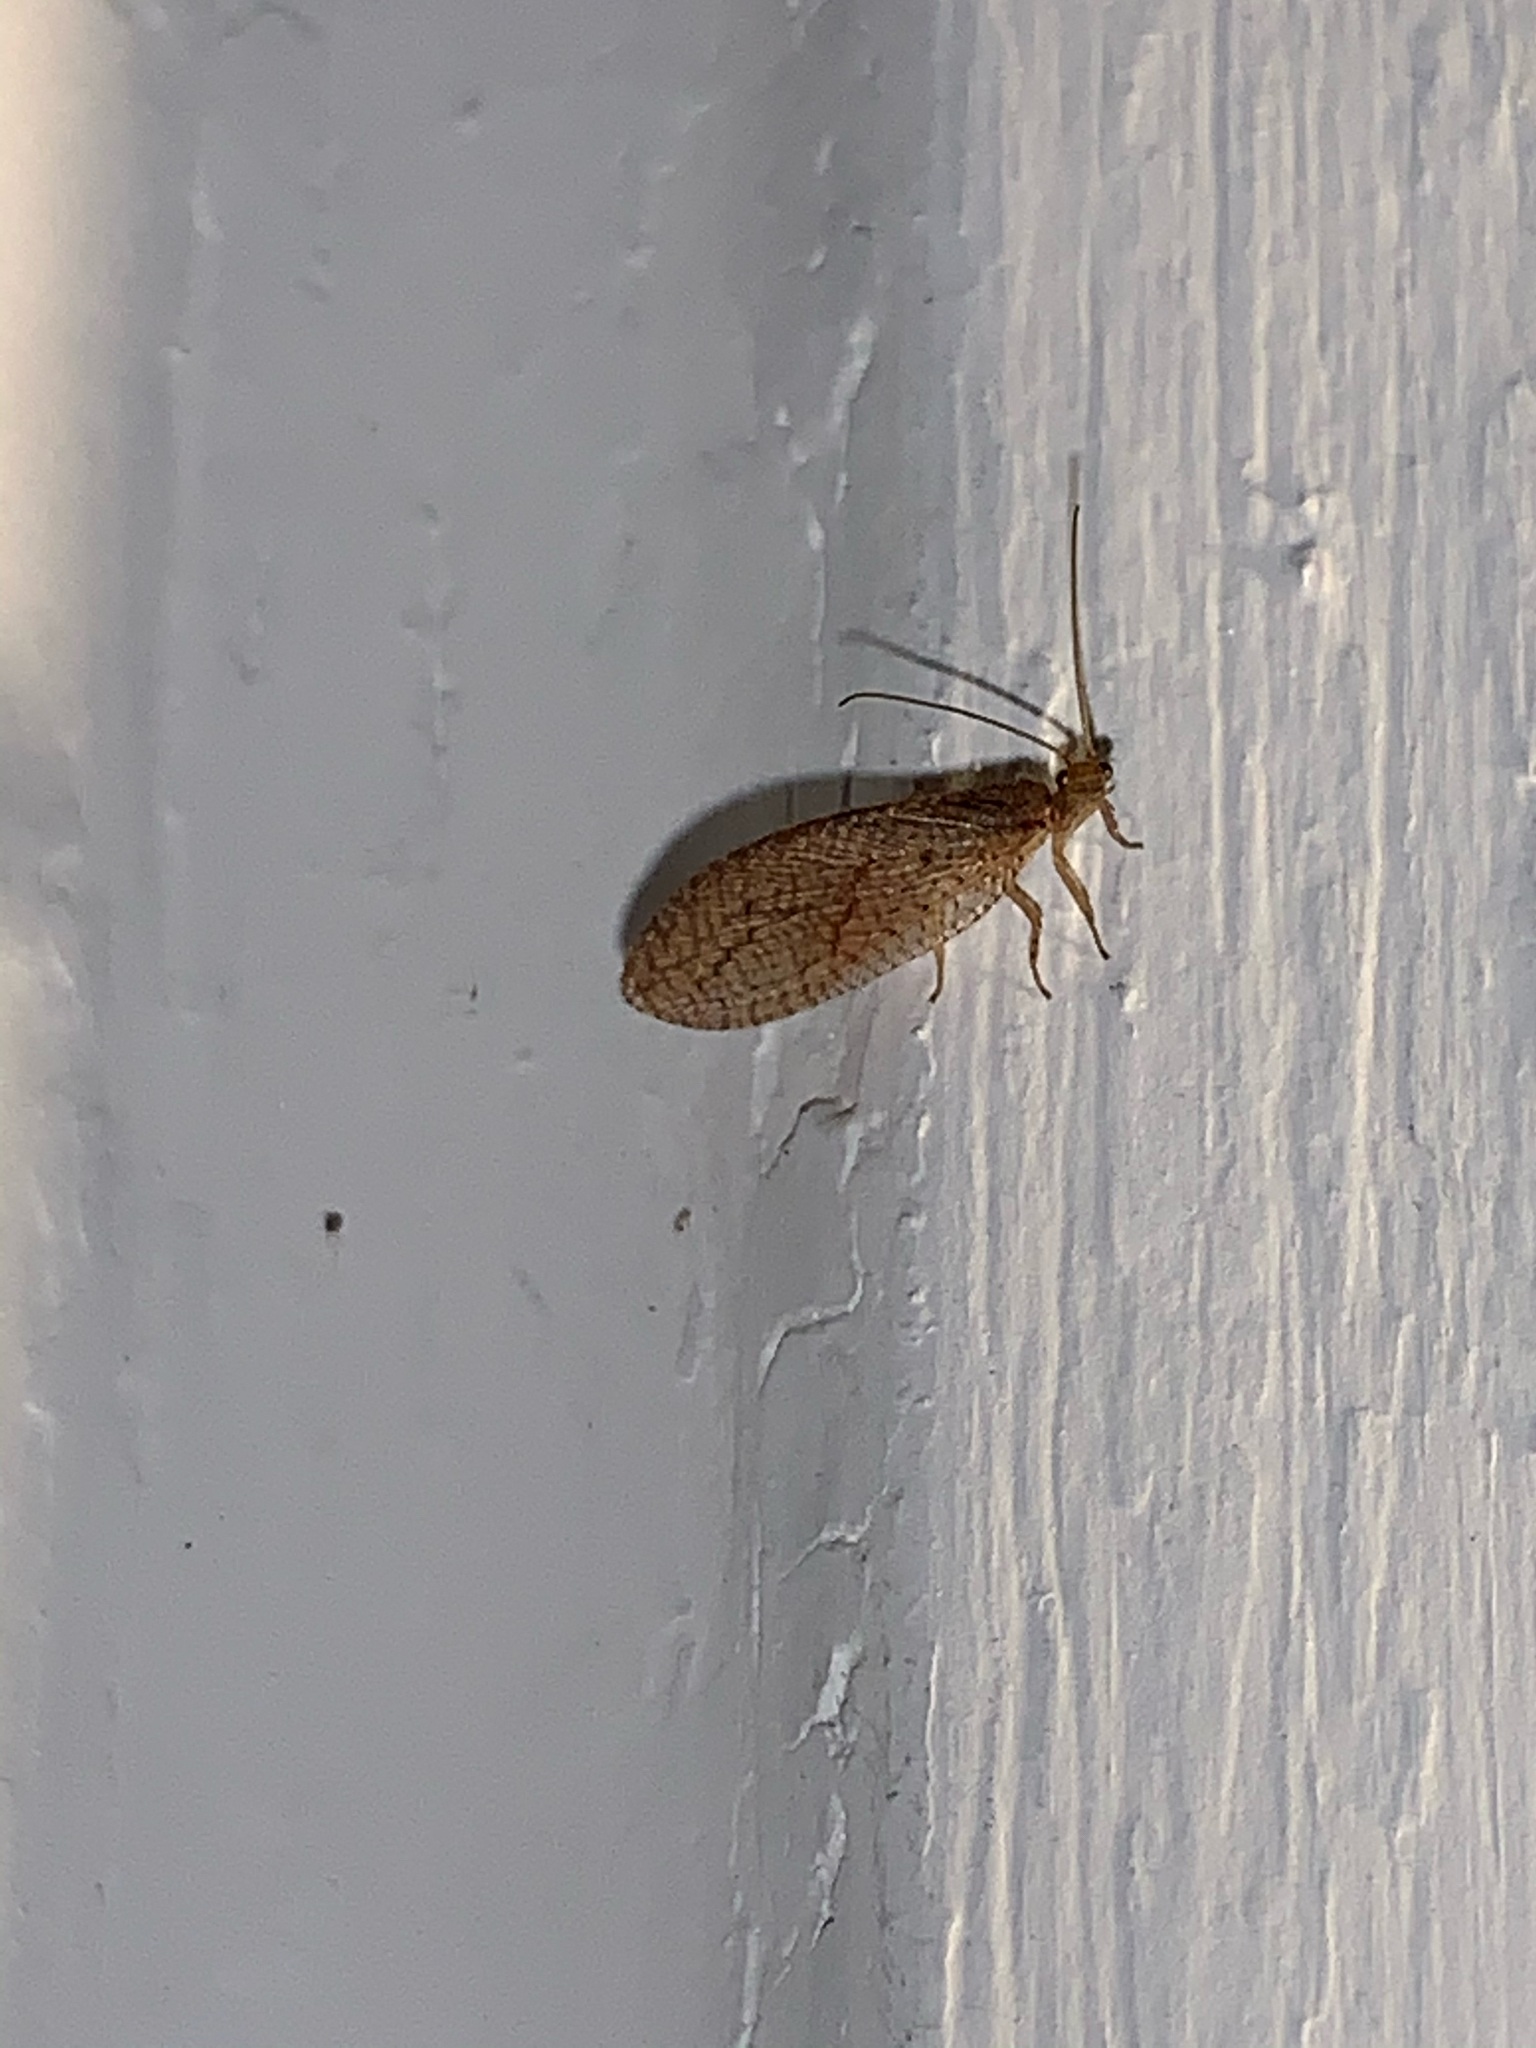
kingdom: Animalia
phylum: Arthropoda
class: Insecta
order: Neuroptera
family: Hemerobiidae
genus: Micromus
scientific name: Micromus posticus
